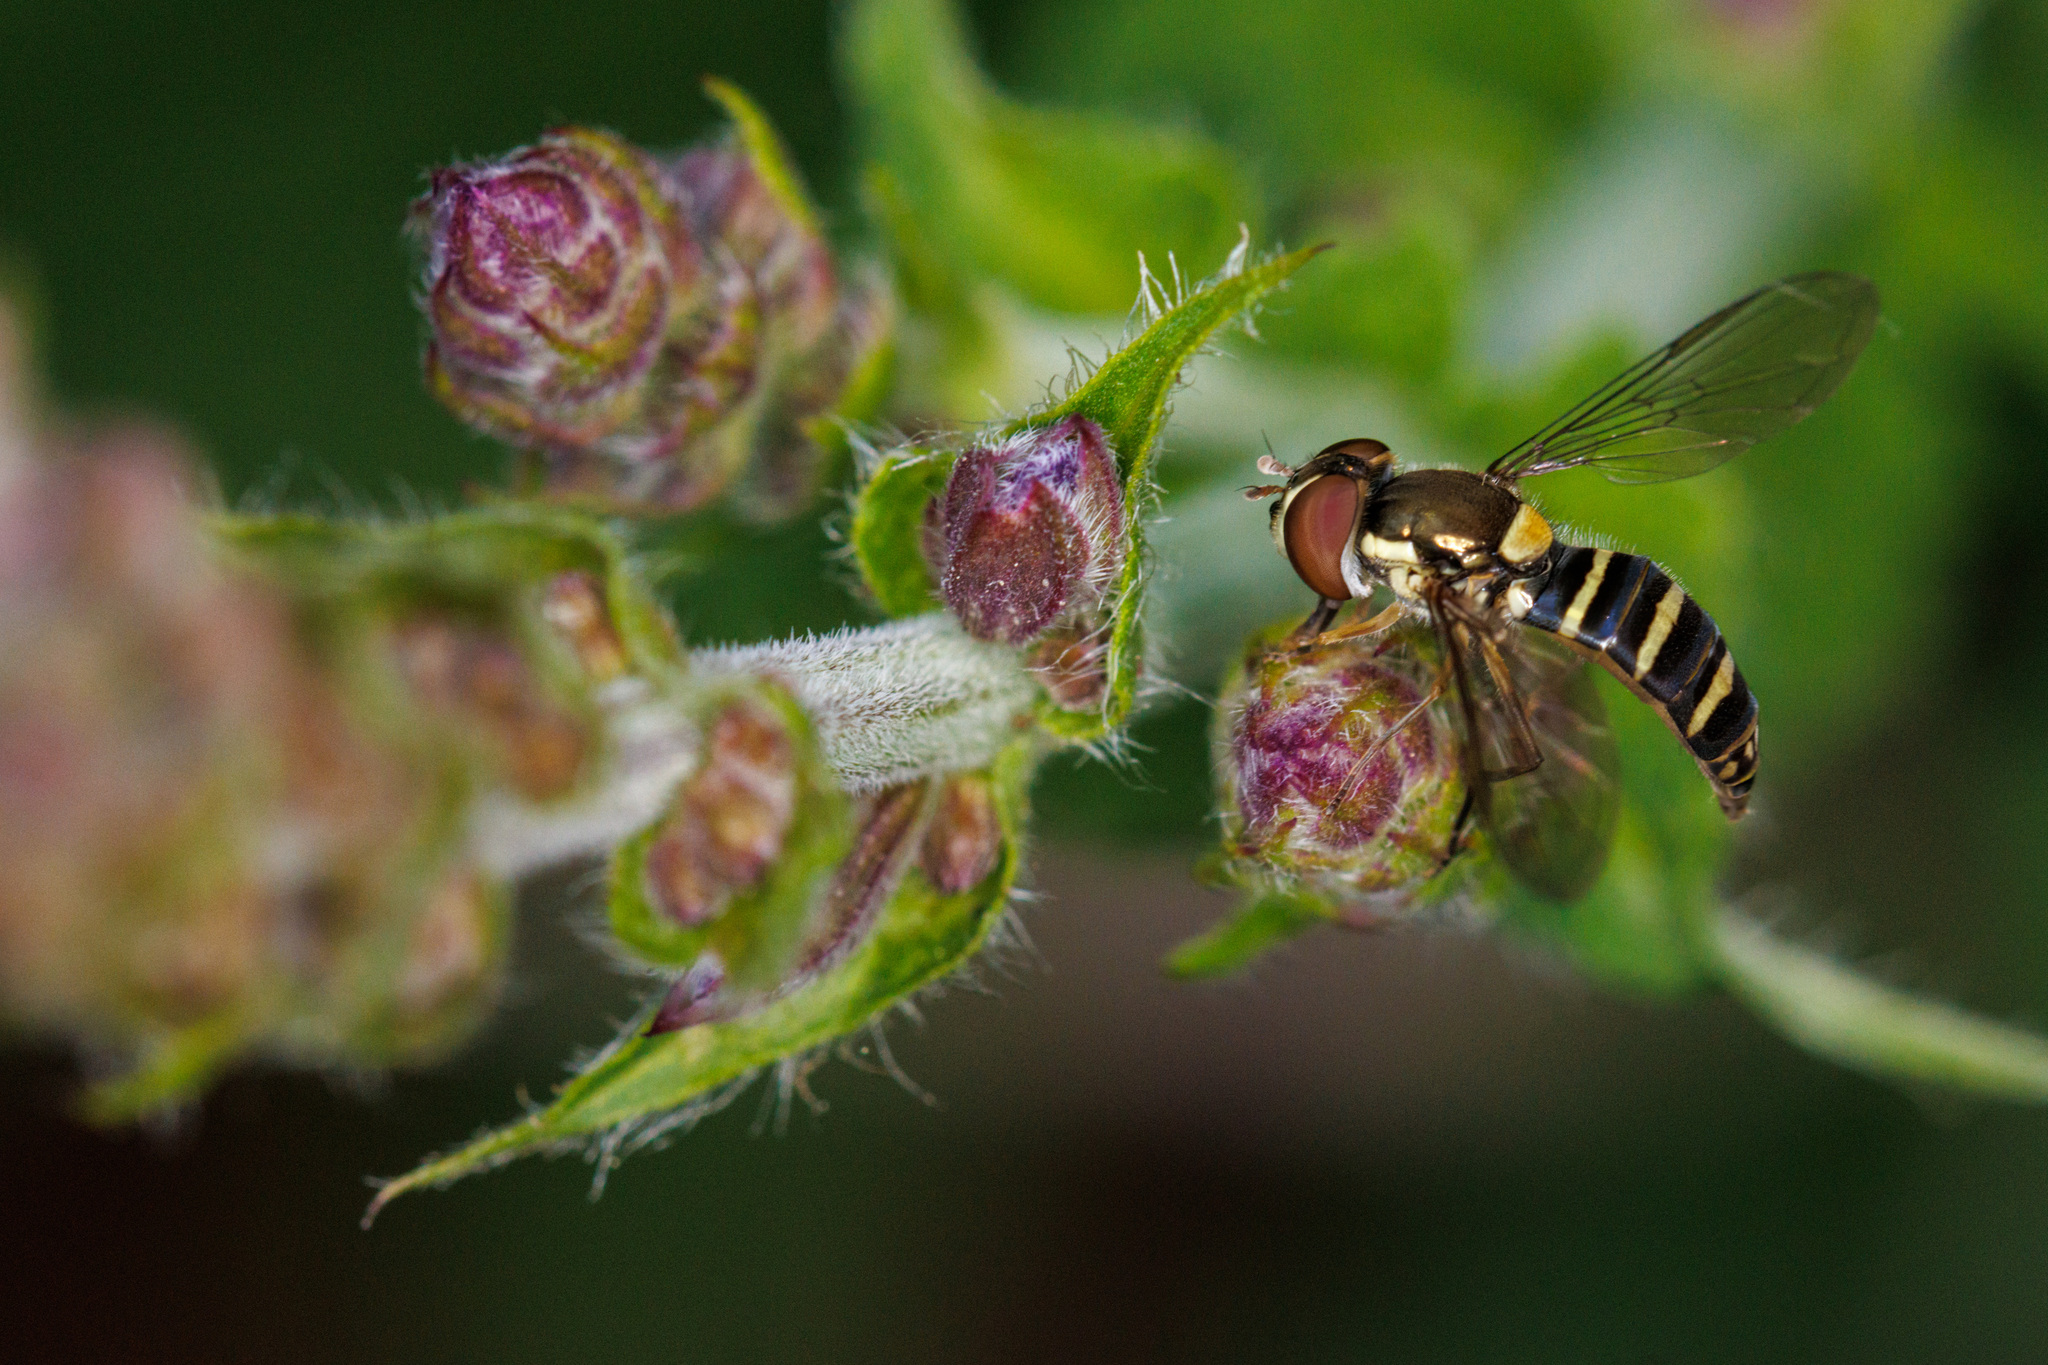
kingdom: Animalia
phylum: Arthropoda
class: Insecta
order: Diptera
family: Syrphidae
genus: Fazia
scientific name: Fazia micrura
